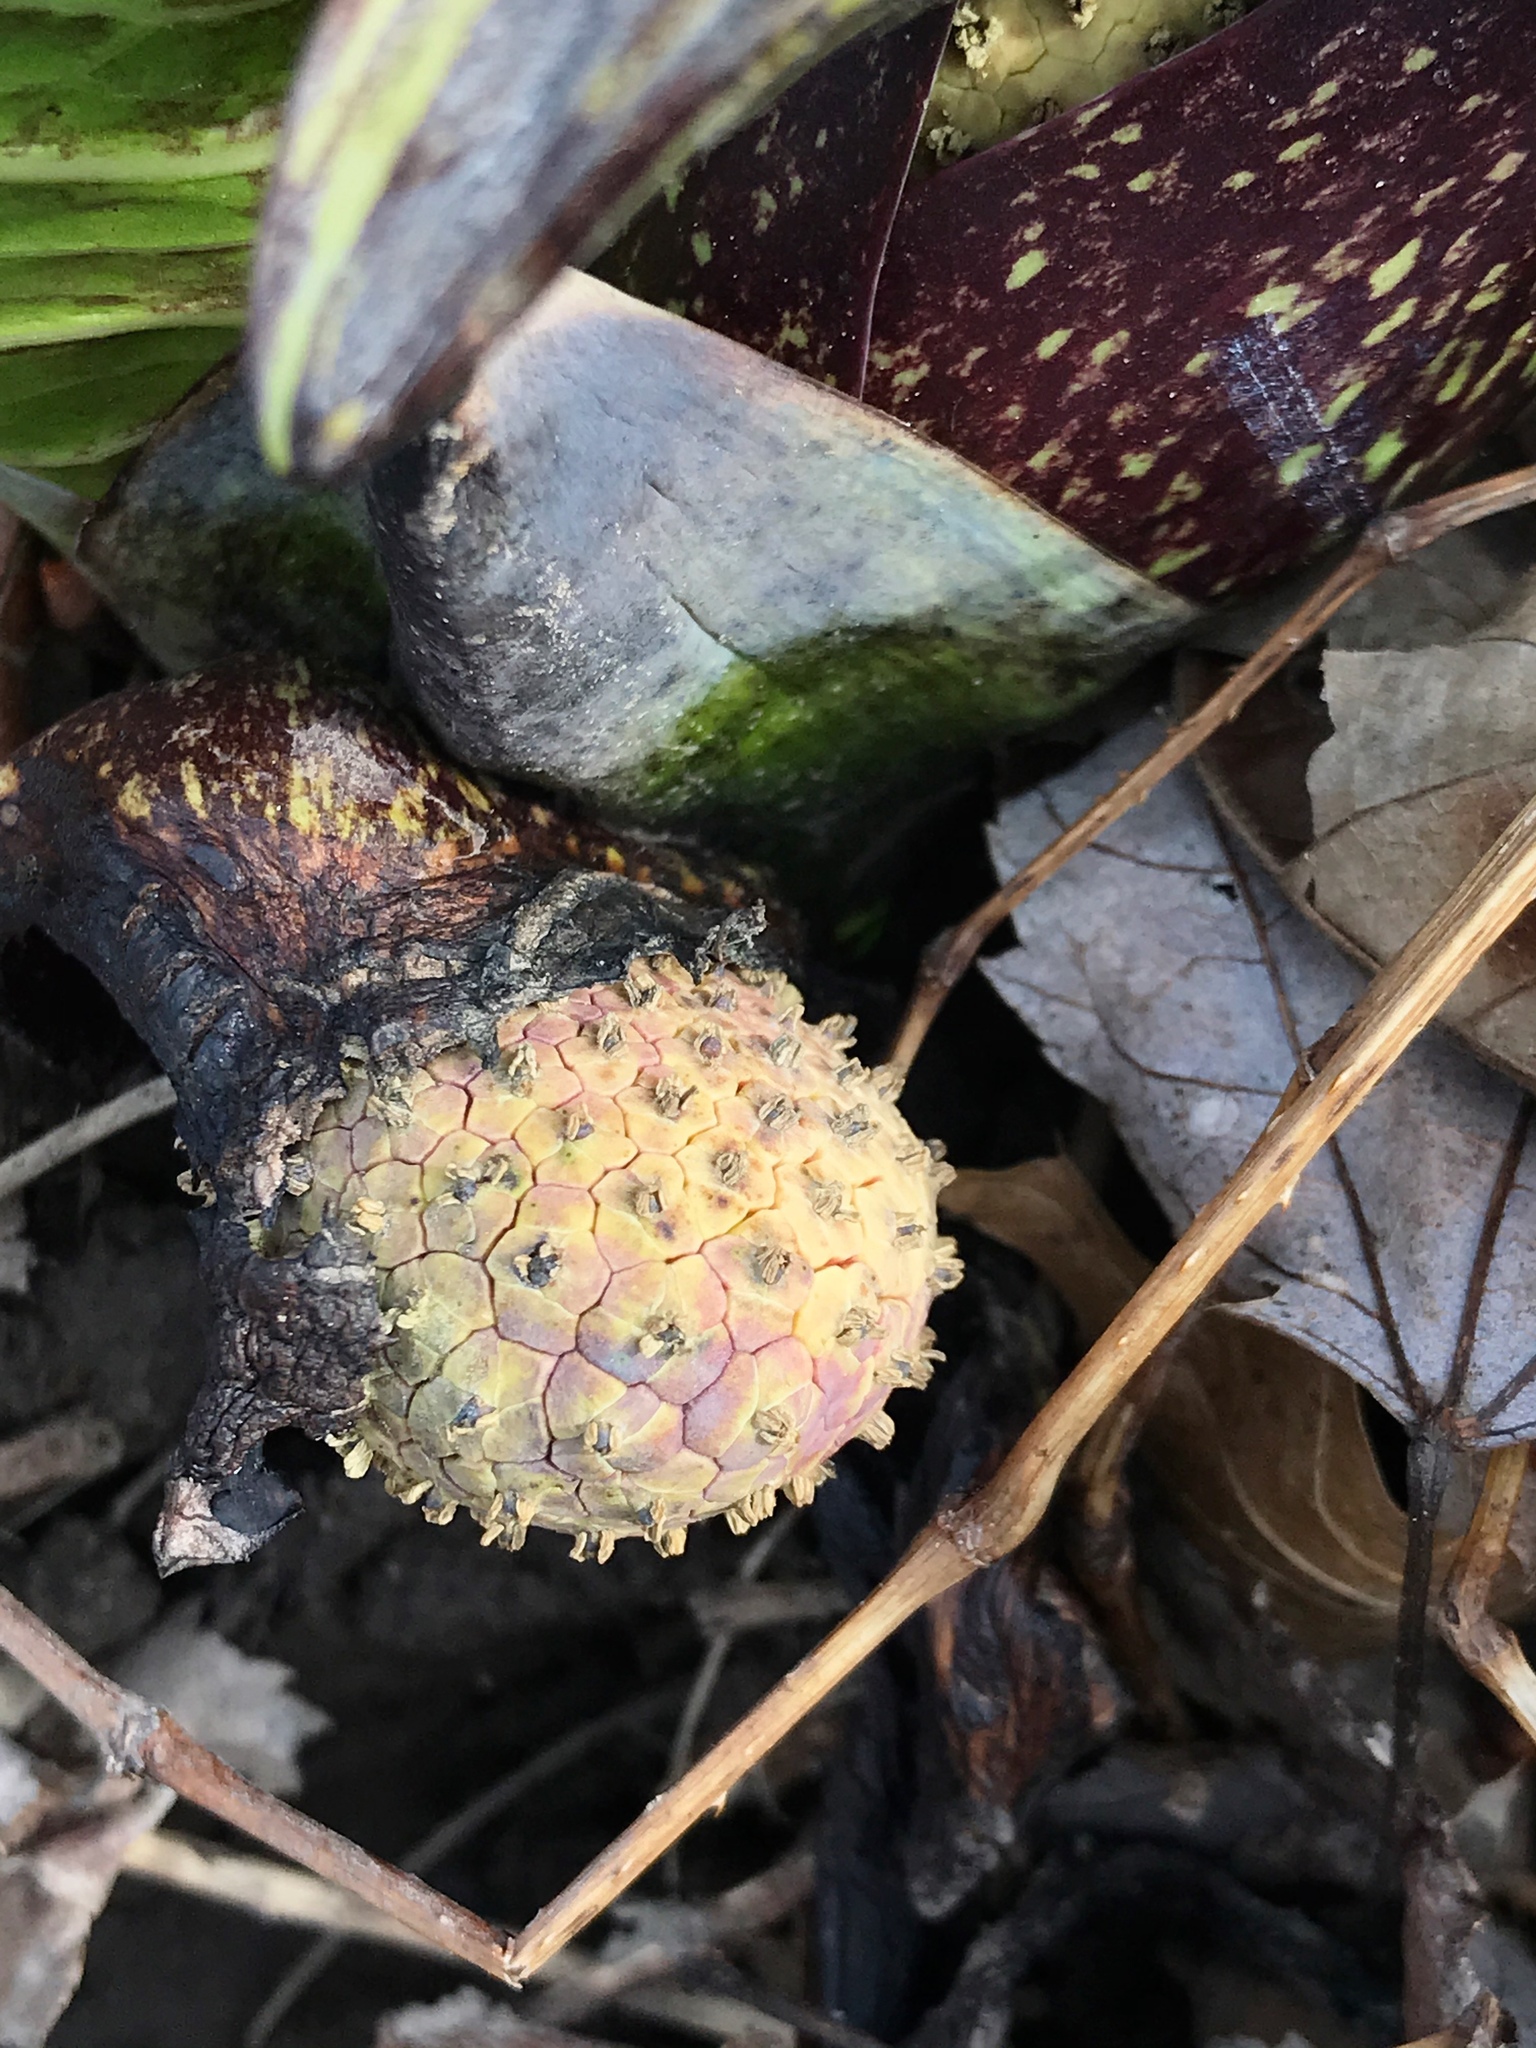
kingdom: Plantae
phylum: Tracheophyta
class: Liliopsida
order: Alismatales
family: Araceae
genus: Symplocarpus
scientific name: Symplocarpus foetidus
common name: Eastern skunk cabbage
